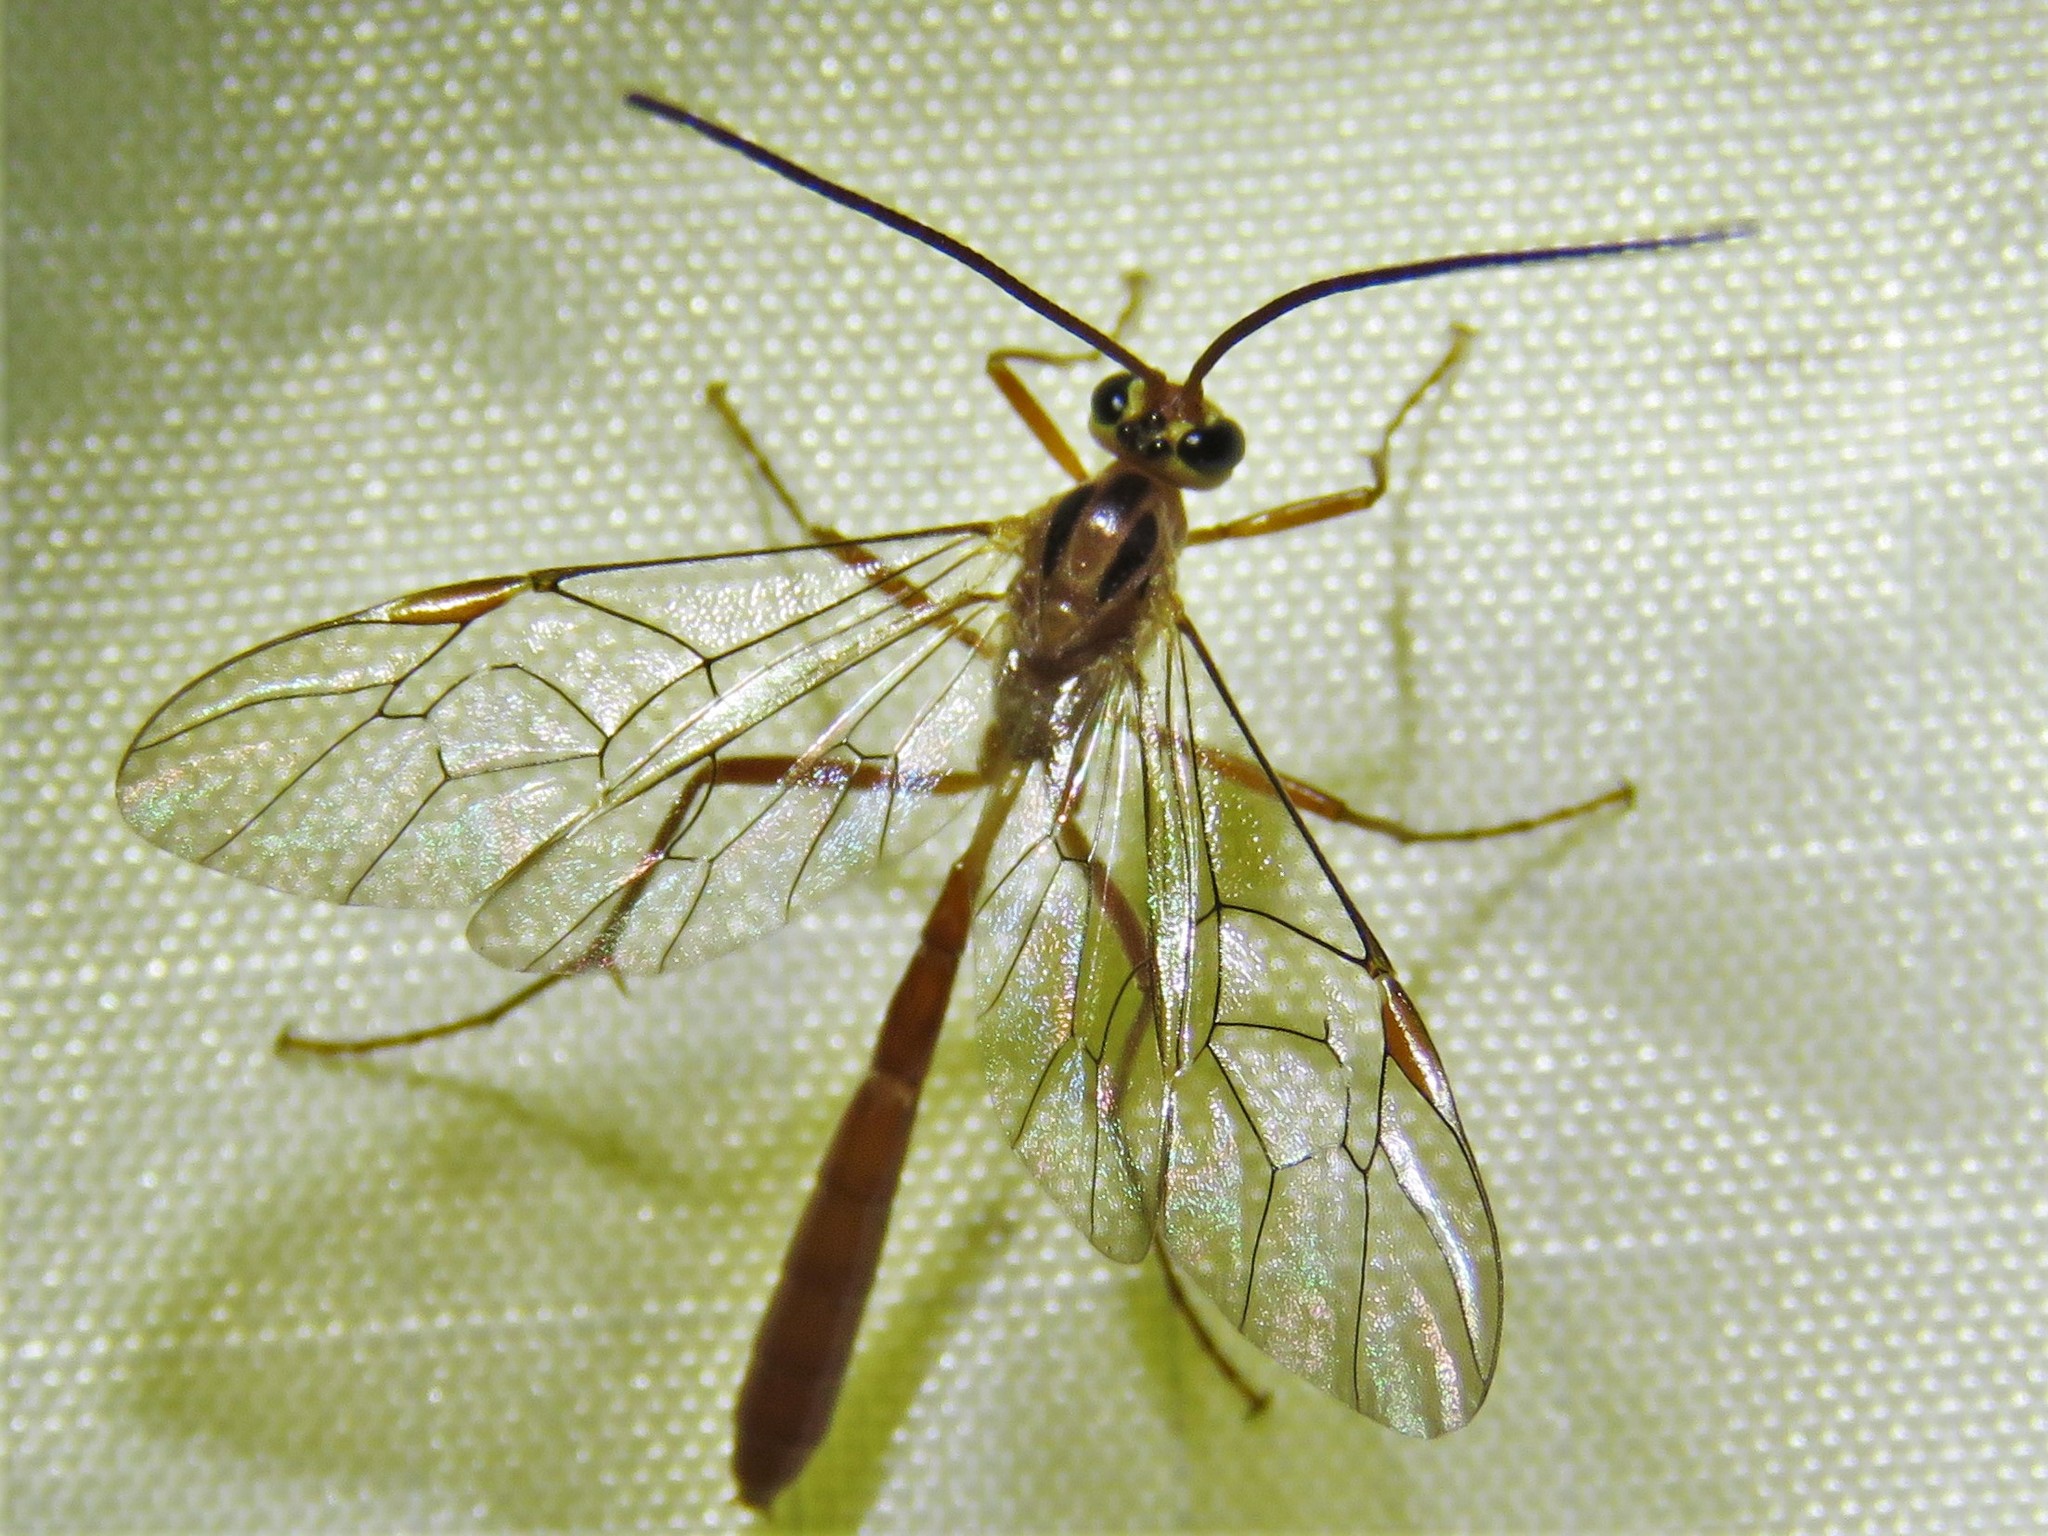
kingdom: Animalia
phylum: Arthropoda
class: Insecta
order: Hymenoptera
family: Ichneumonidae
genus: Ophion
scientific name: Ophion
